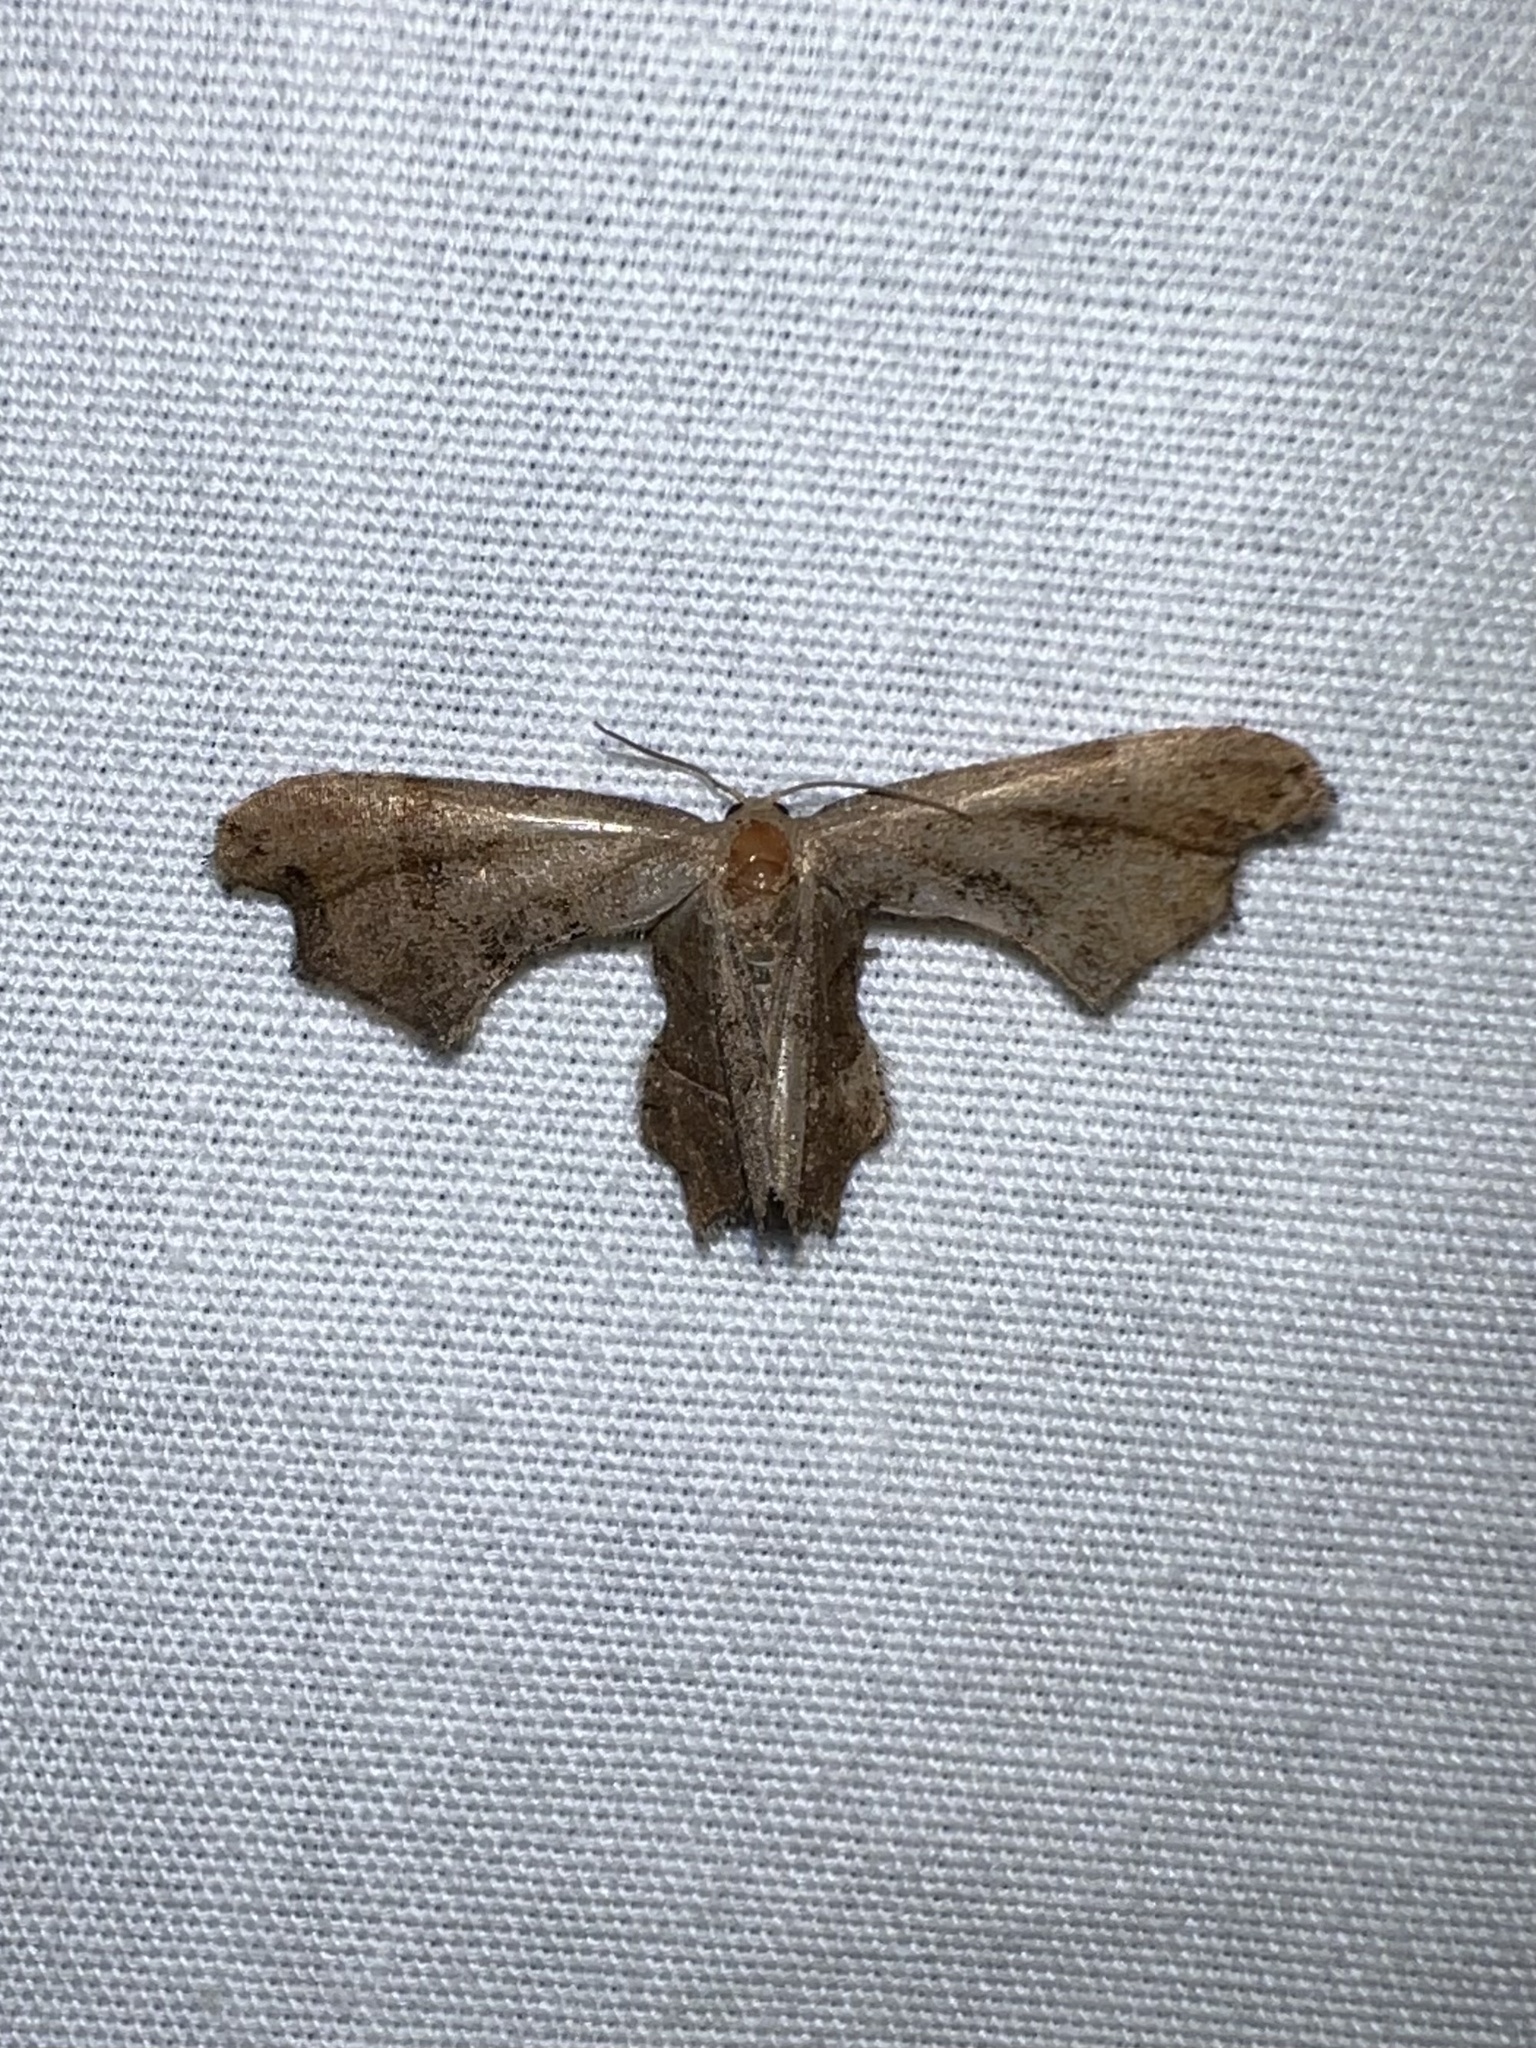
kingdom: Animalia
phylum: Arthropoda
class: Insecta
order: Lepidoptera
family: Uraniidae
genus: Epiplema
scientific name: Epiplema Calledapteryx dryopterata
